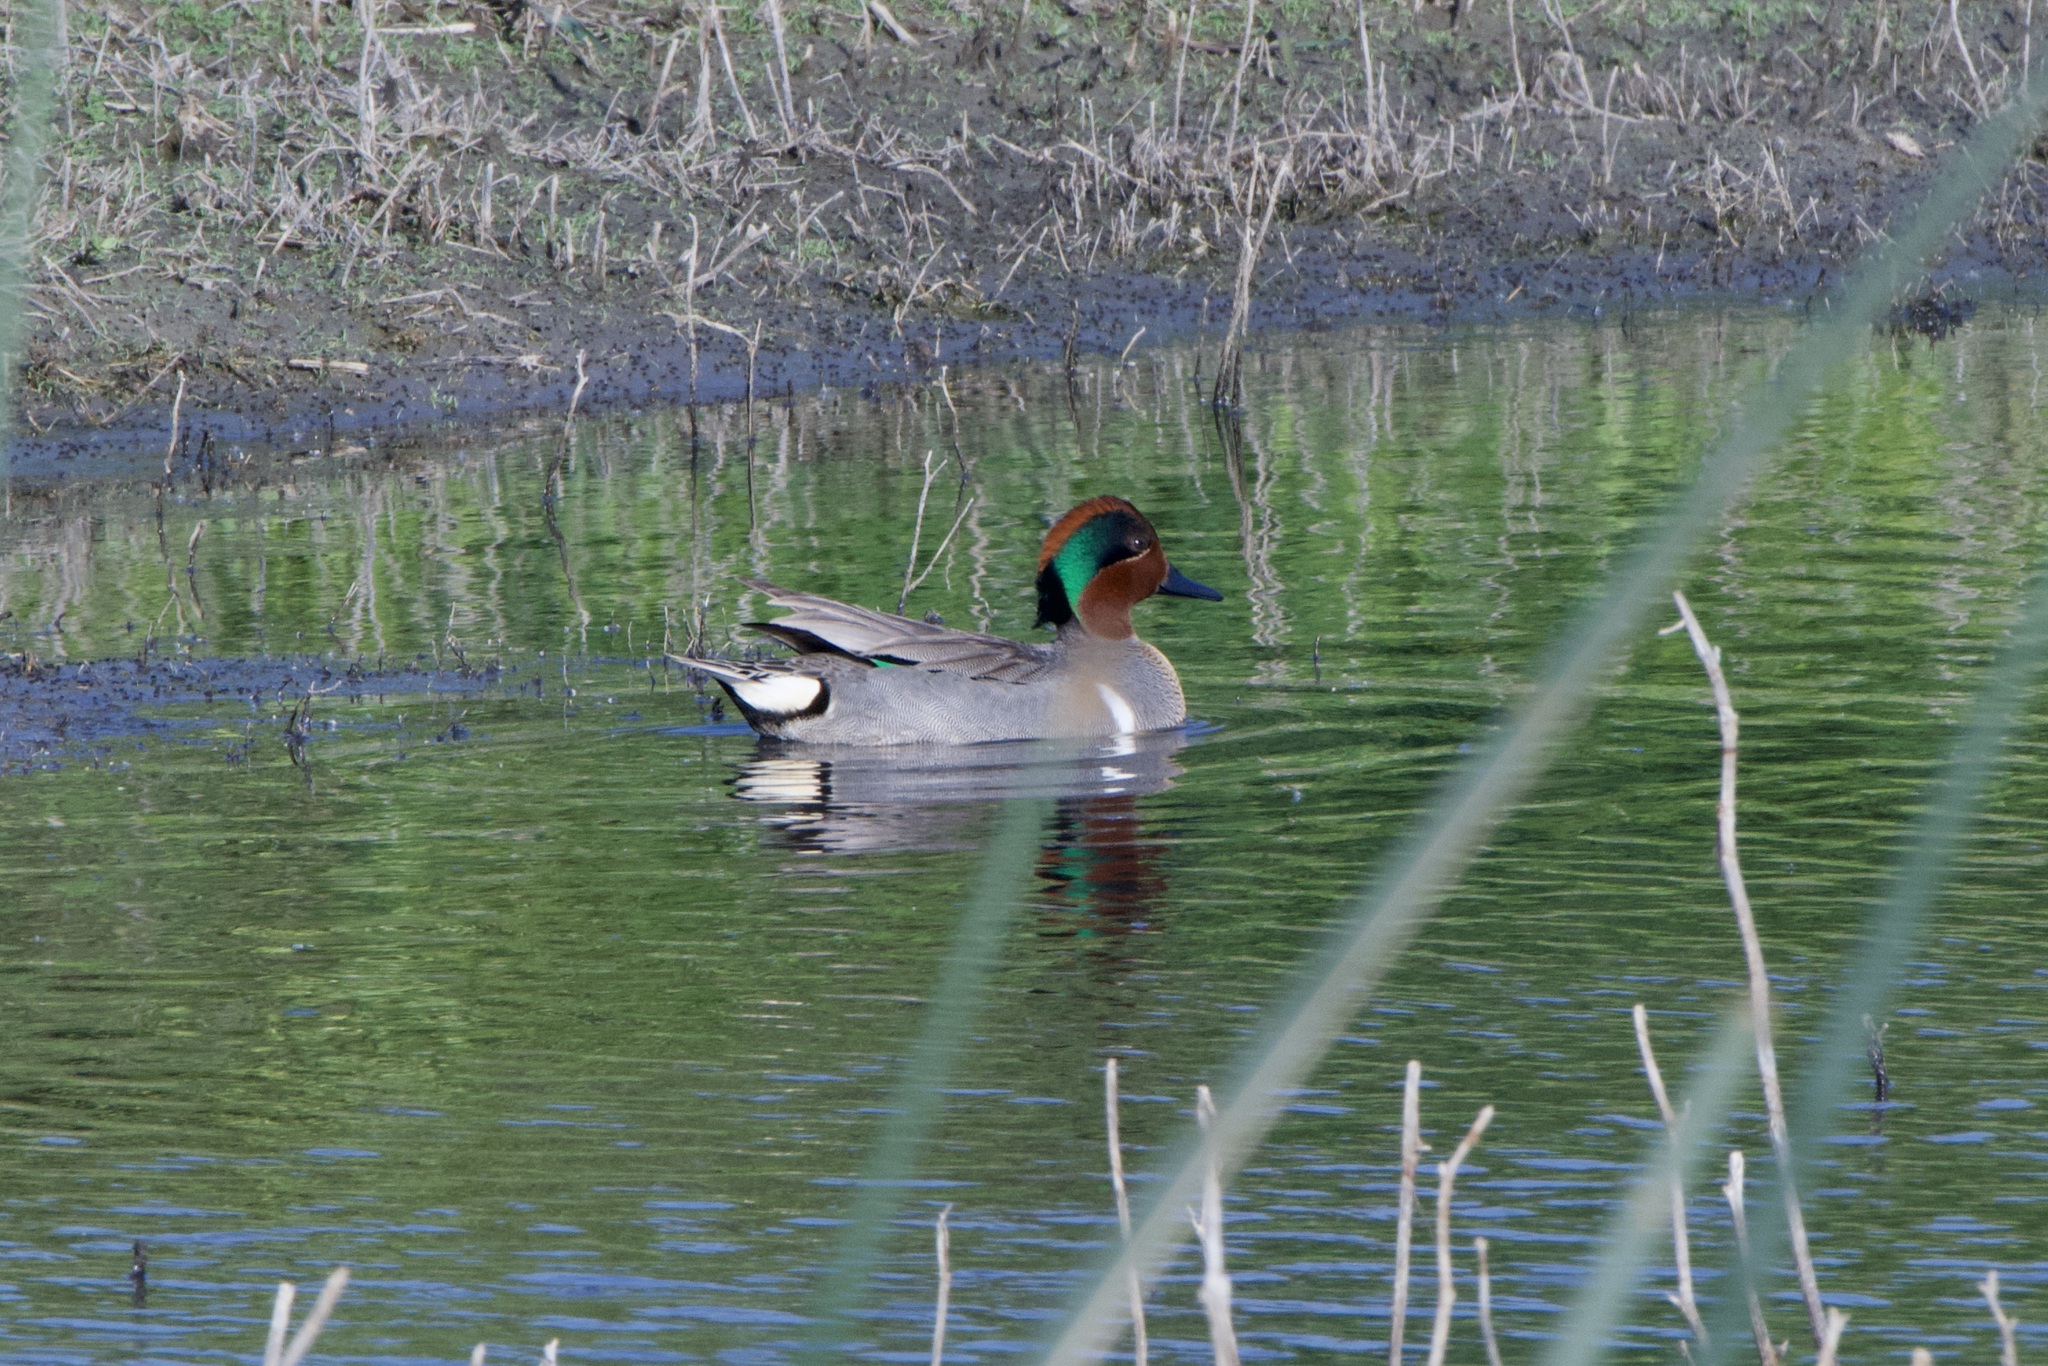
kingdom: Animalia
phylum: Chordata
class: Aves
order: Anseriformes
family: Anatidae
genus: Anas
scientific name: Anas carolinensis
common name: Green-winged teal
